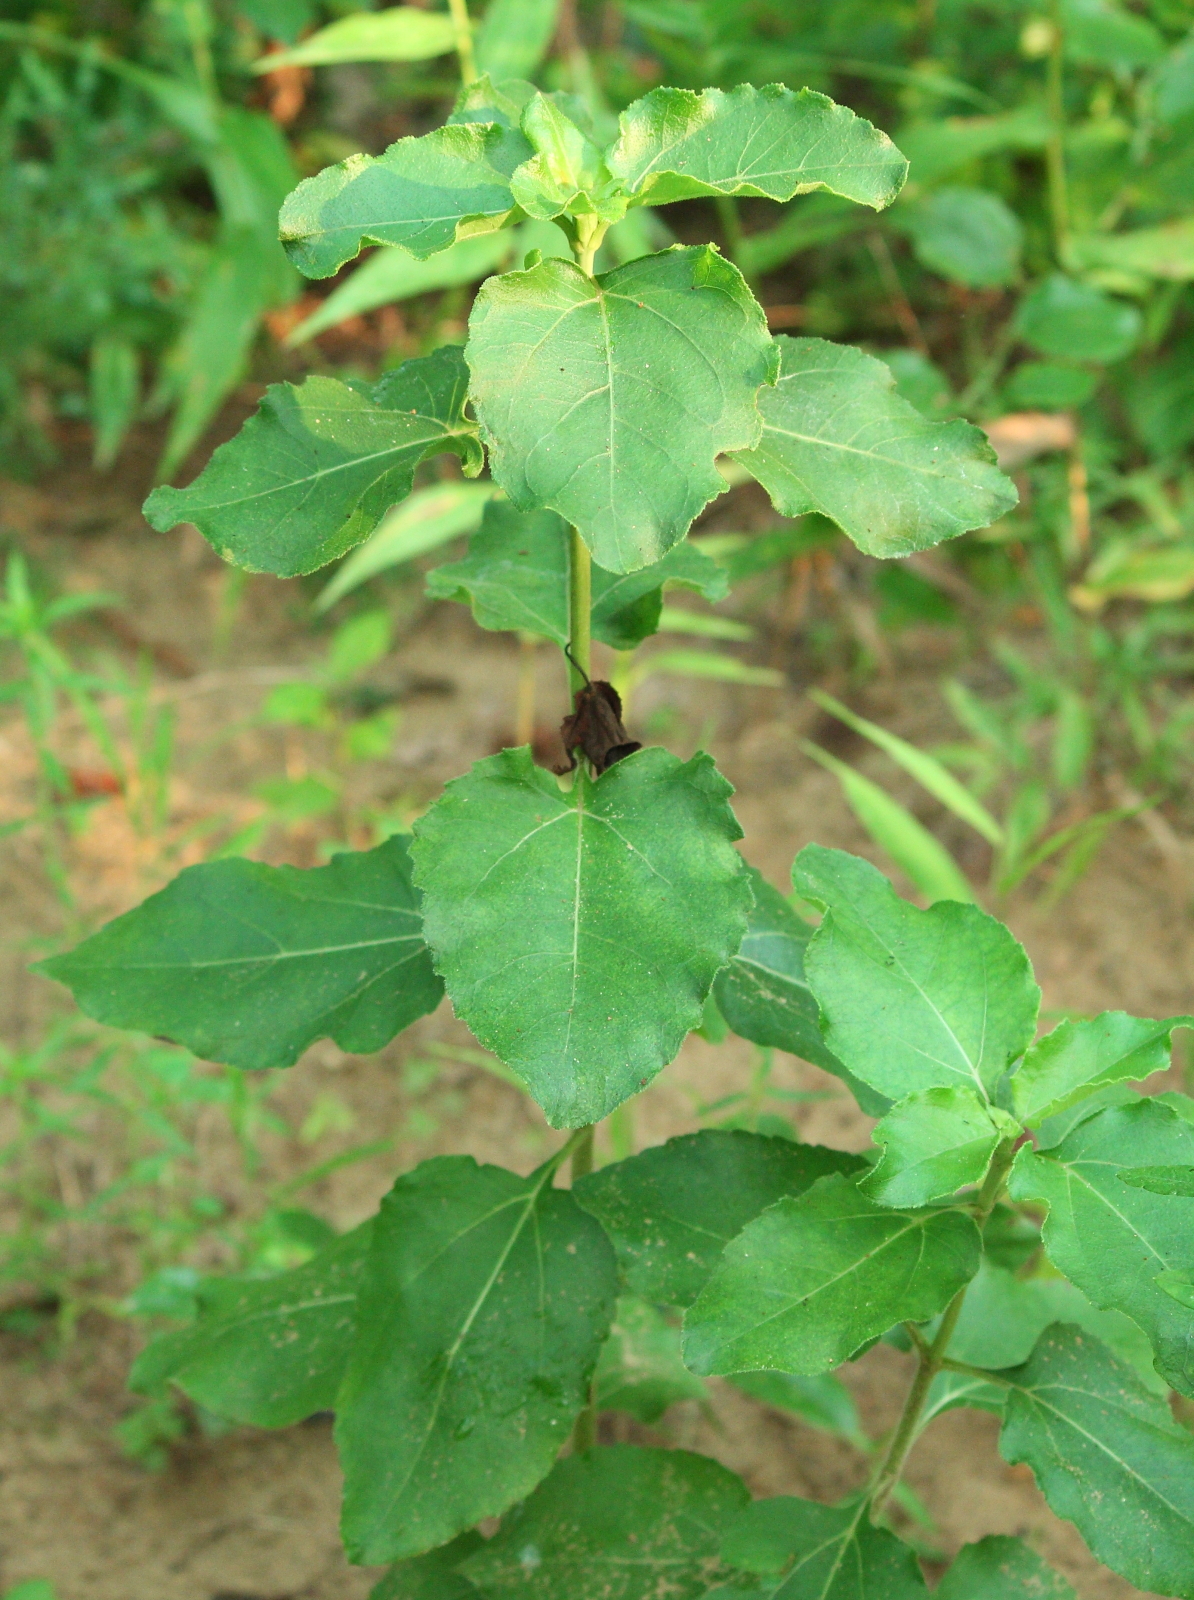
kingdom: Plantae
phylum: Tracheophyta
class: Magnoliopsida
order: Asterales
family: Asteraceae
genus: Helianthus
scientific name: Helianthus silphioides
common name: Odorous sunflower
